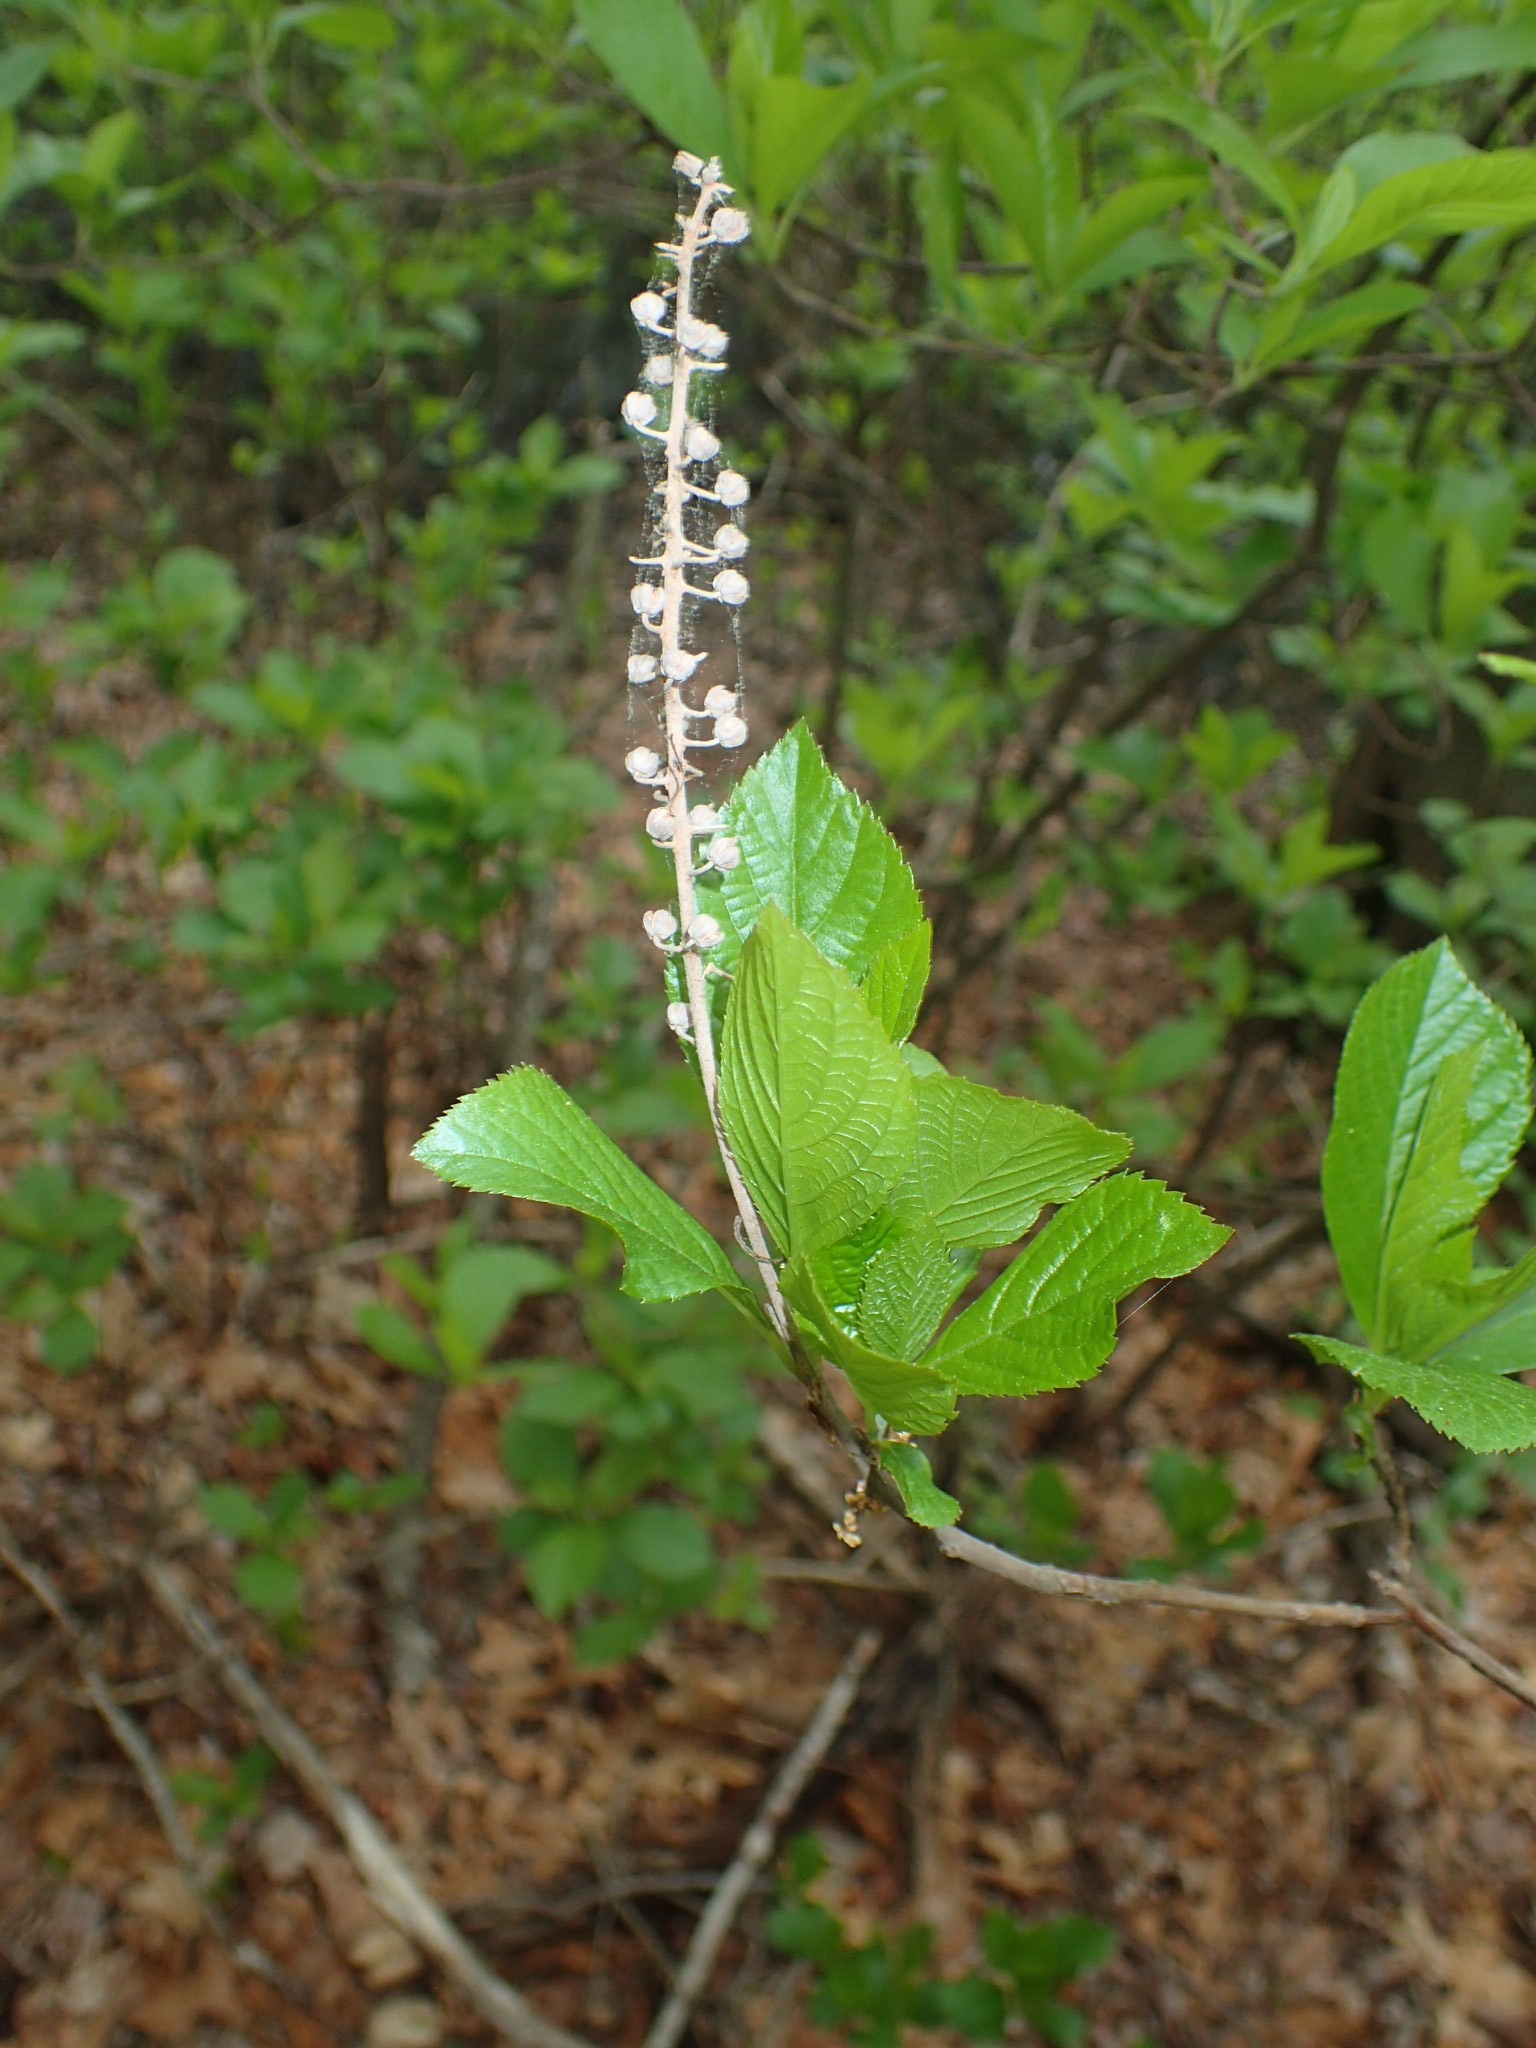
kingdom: Plantae
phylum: Tracheophyta
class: Magnoliopsida
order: Ericales
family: Clethraceae
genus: Clethra
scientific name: Clethra alnifolia
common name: Sweet pepperbush
